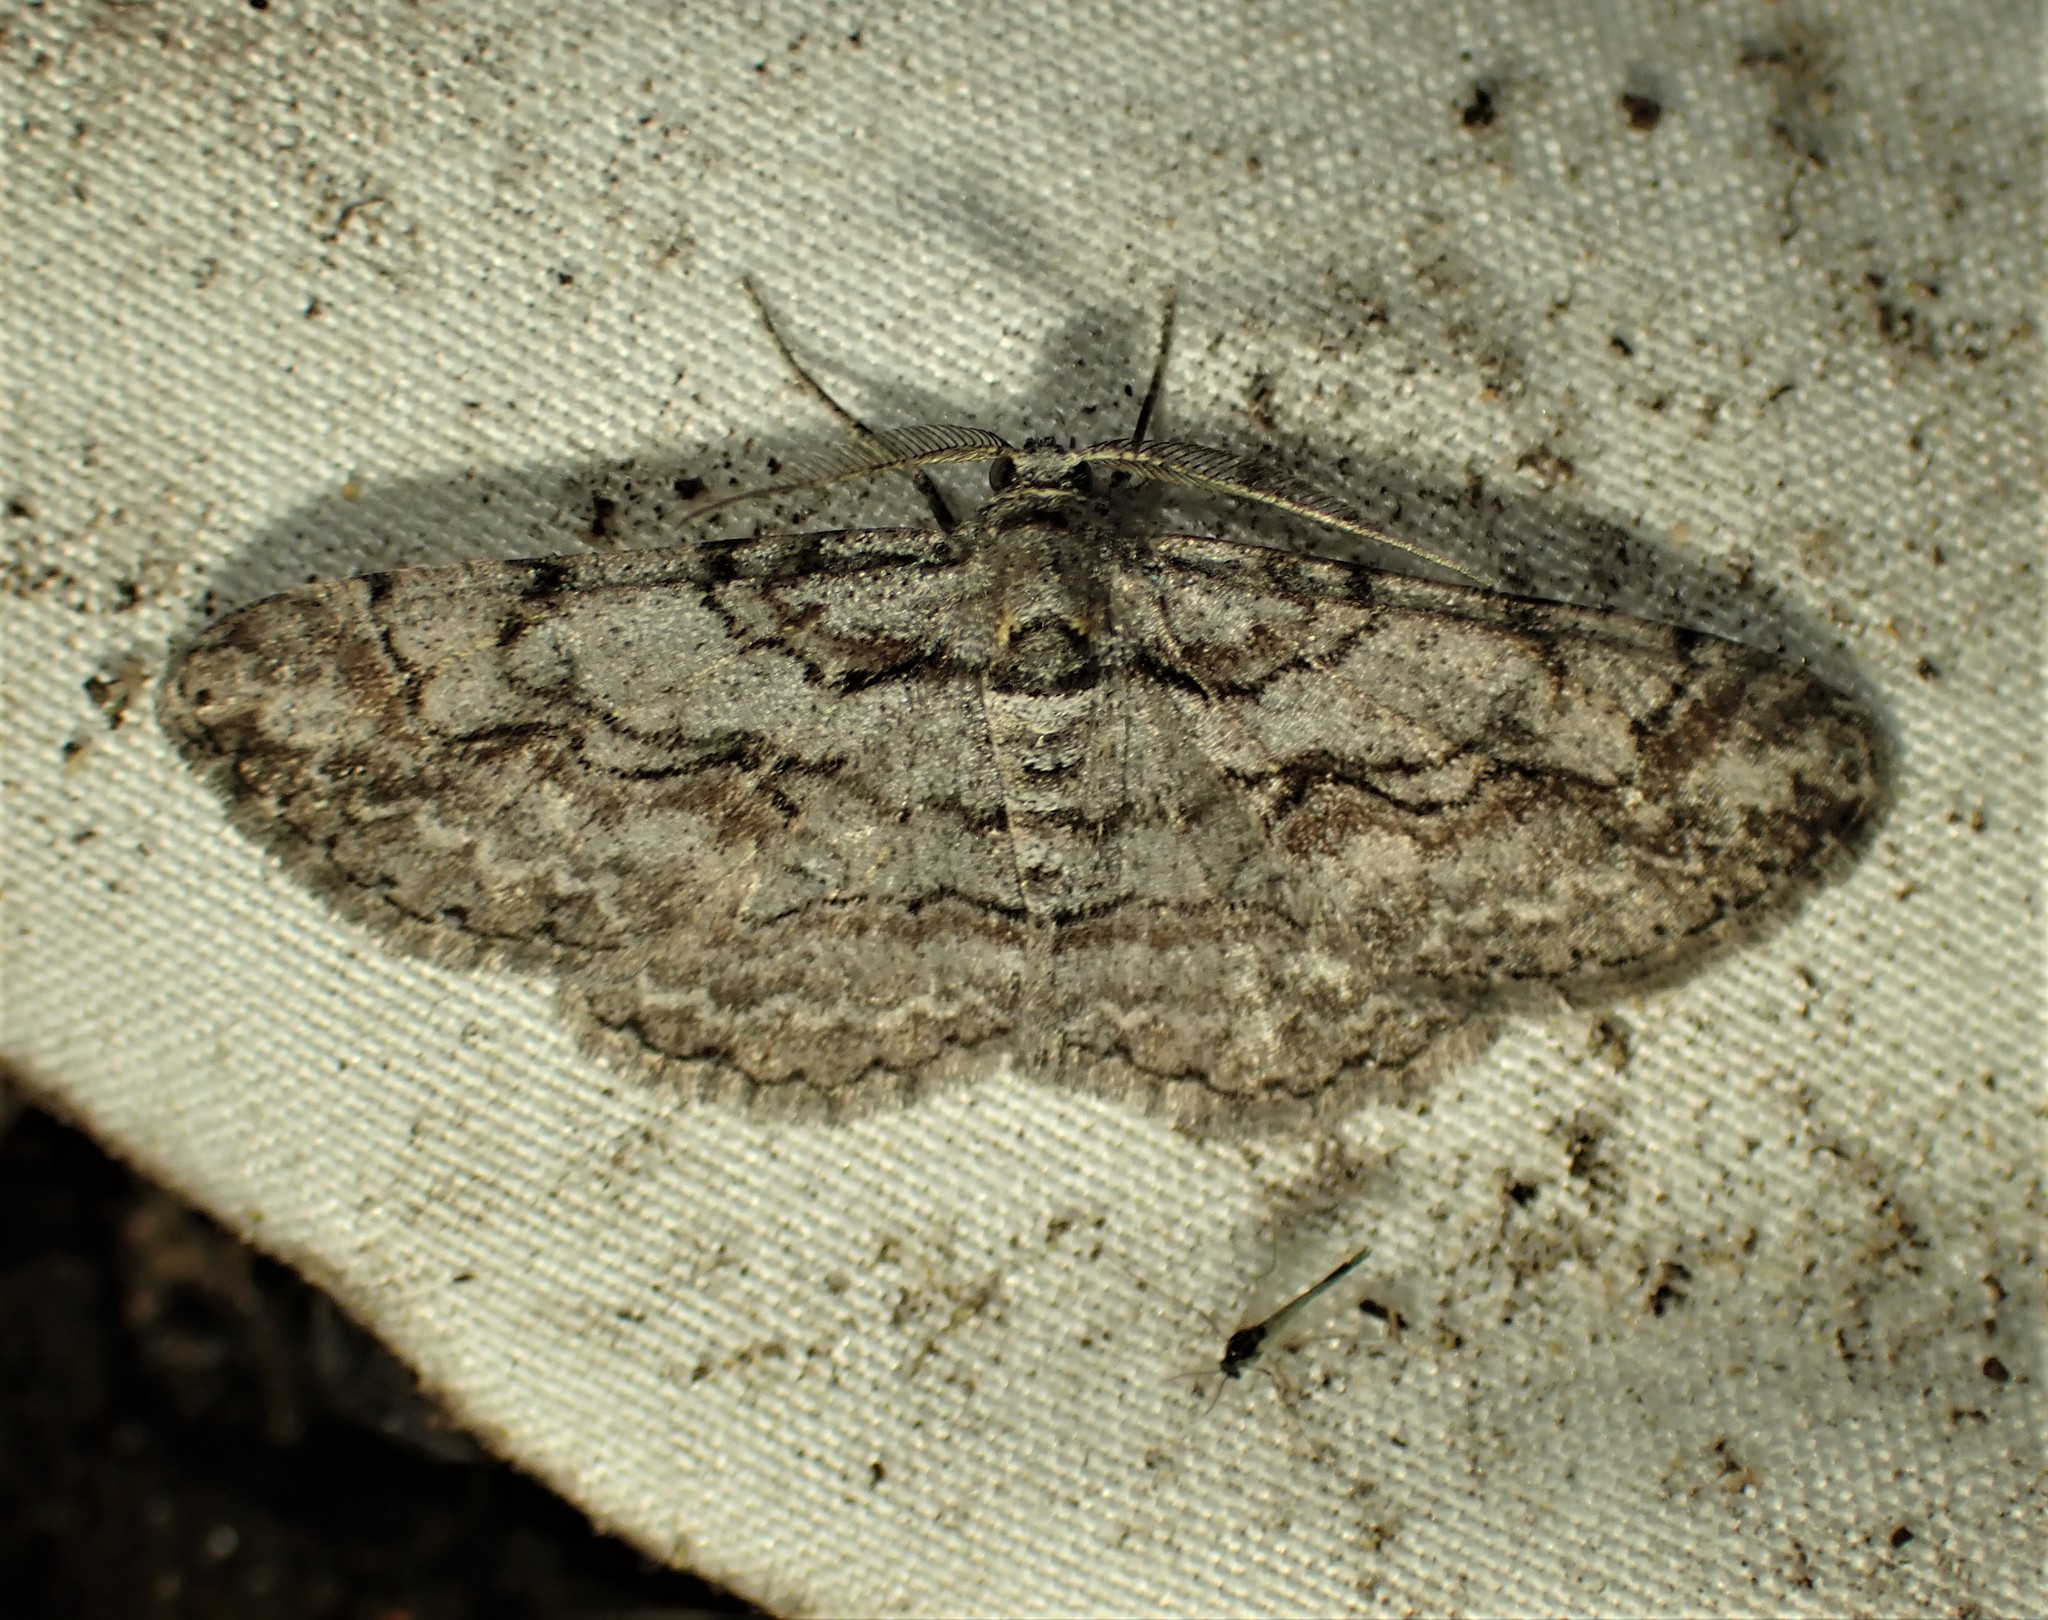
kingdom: Animalia
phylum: Arthropoda
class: Insecta
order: Lepidoptera
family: Geometridae
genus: Iridopsis
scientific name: Iridopsis humaria
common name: Small purplish gray
